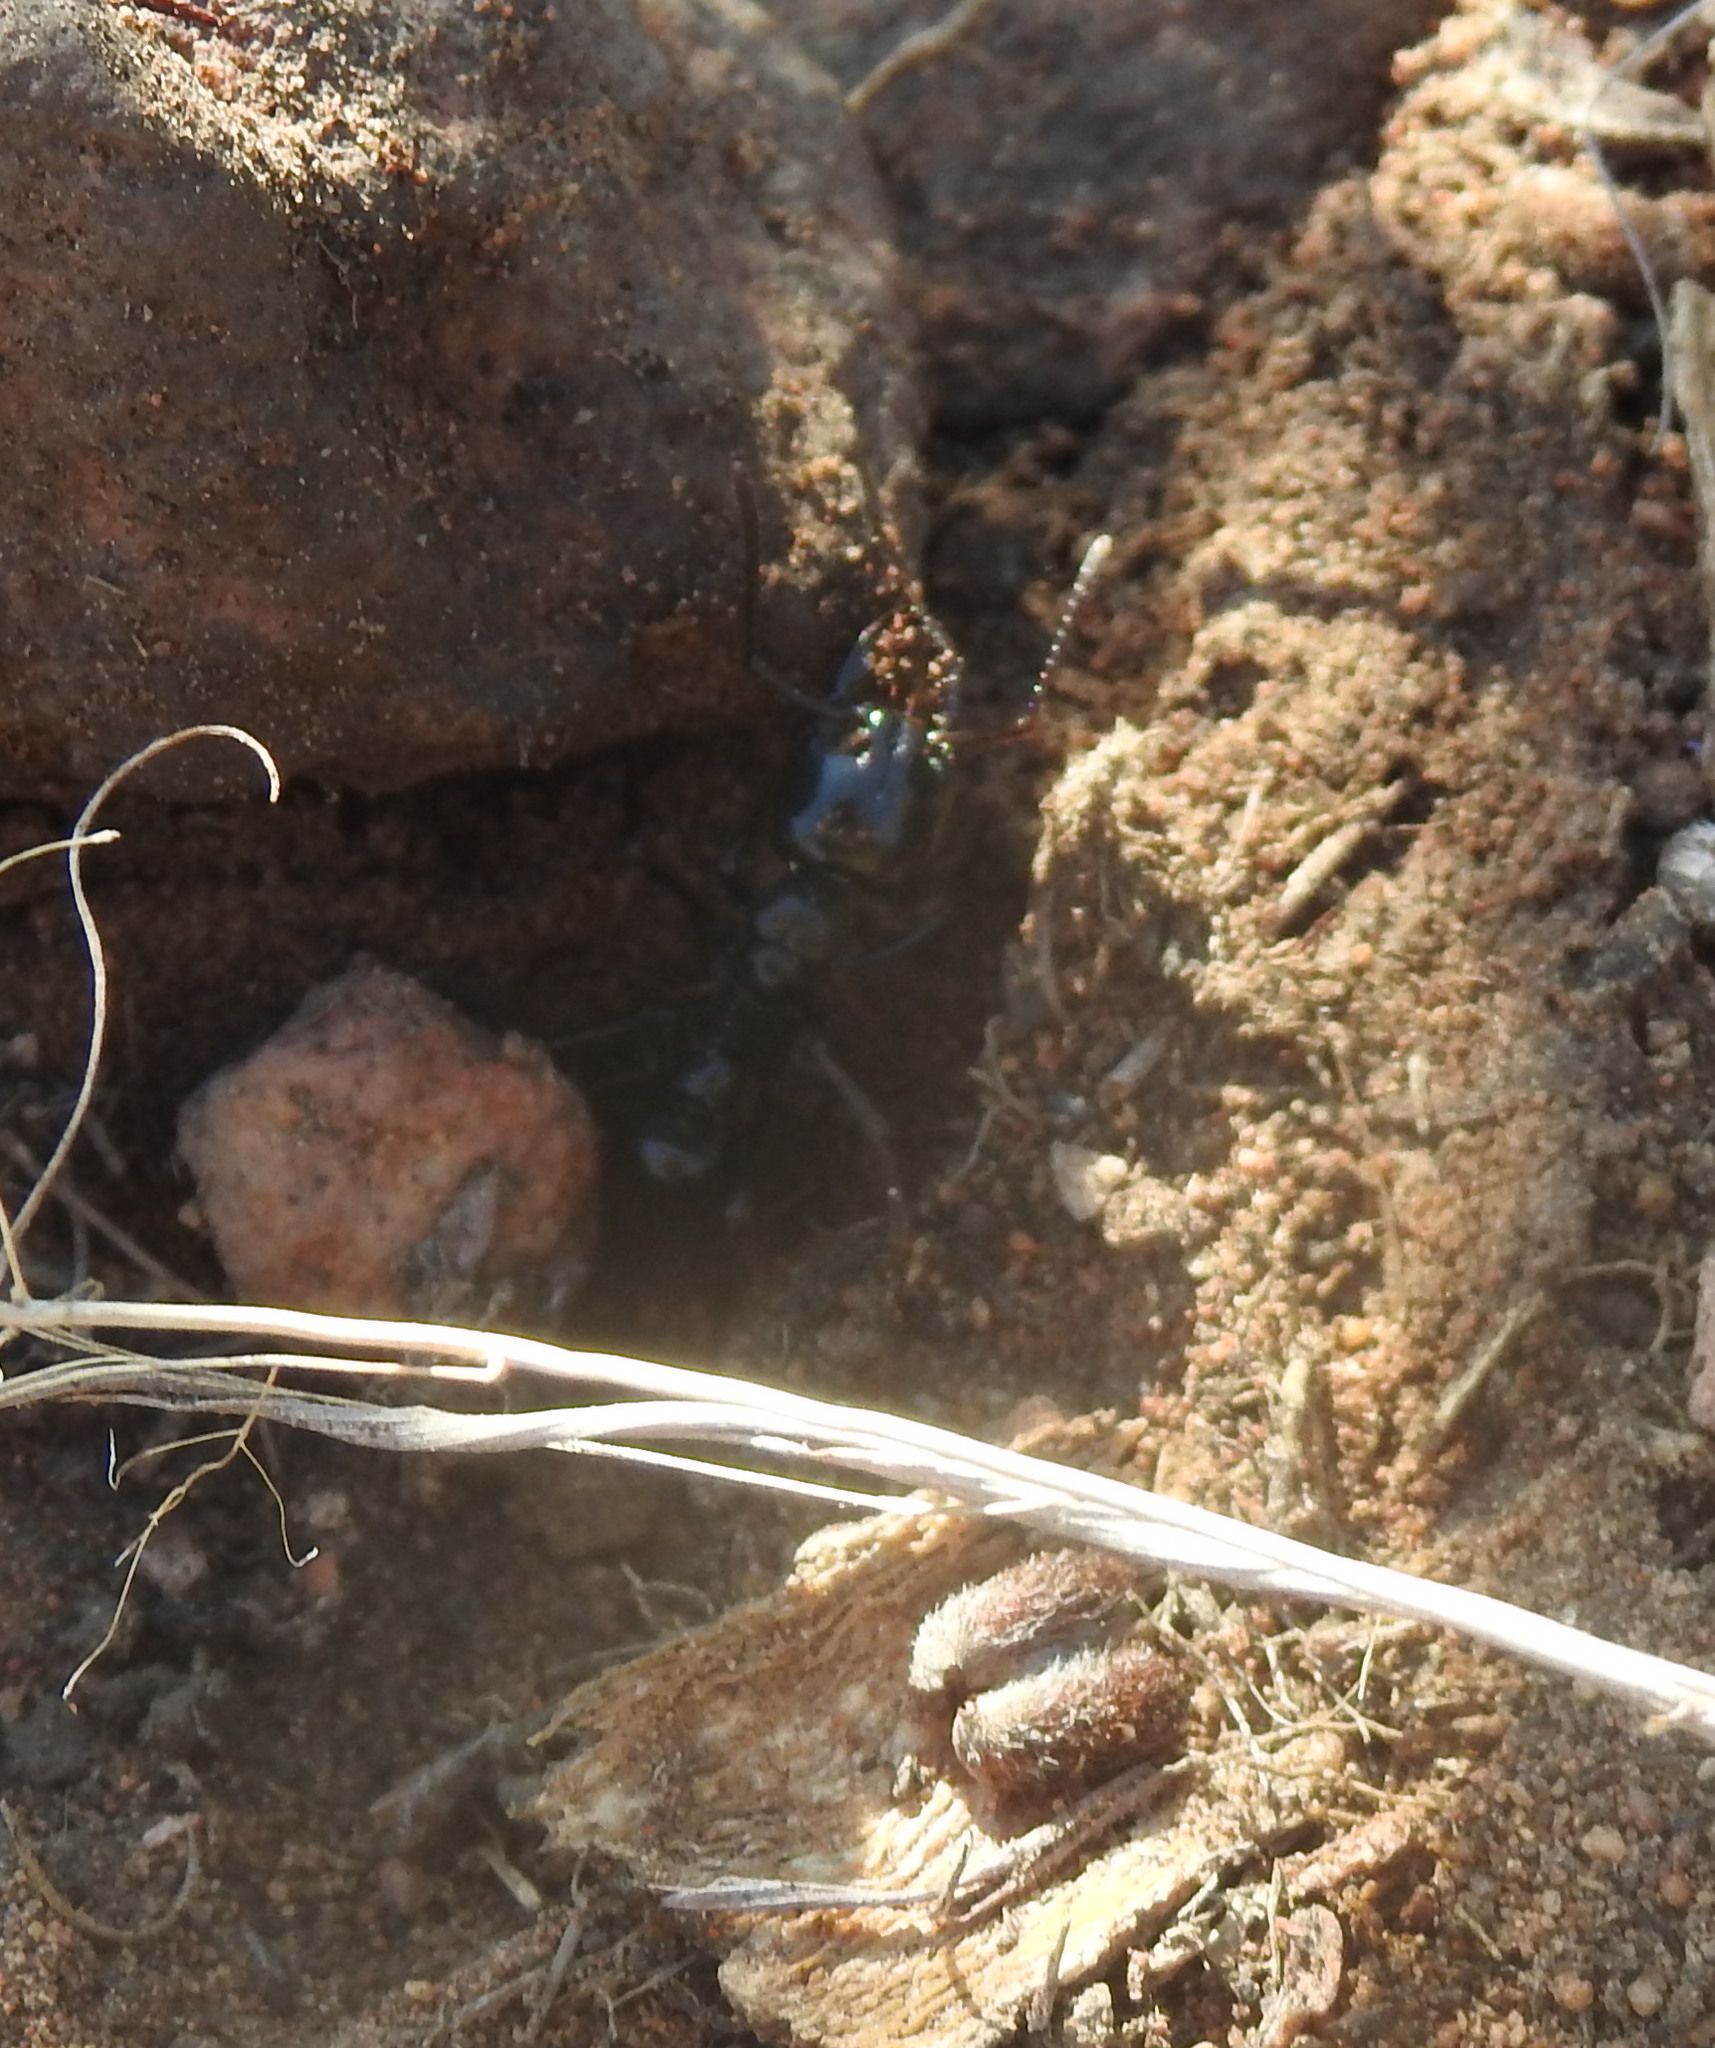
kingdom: Animalia
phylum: Arthropoda
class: Insecta
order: Hymenoptera
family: Formicidae
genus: Plectroctena
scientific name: Plectroctena mandibularis
